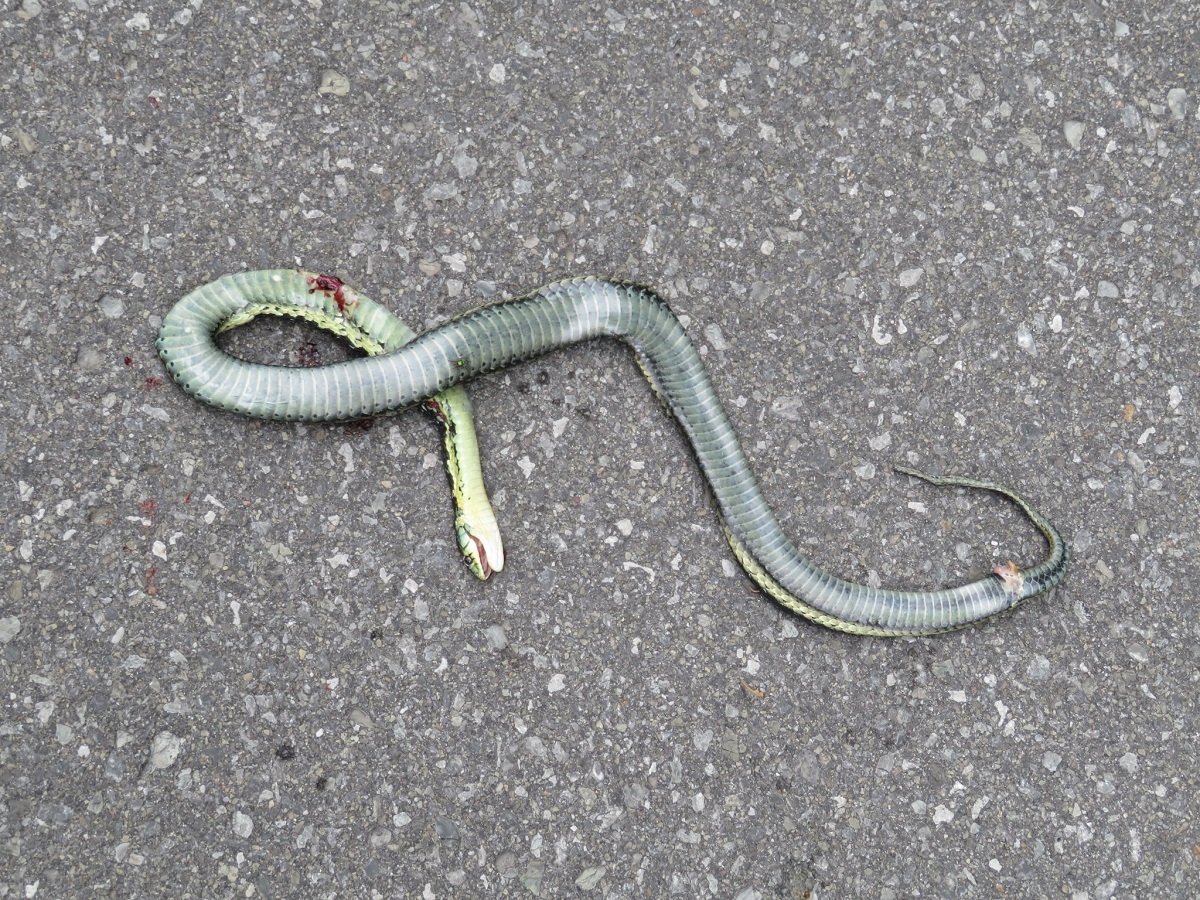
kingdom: Animalia
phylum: Chordata
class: Squamata
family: Colubridae
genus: Thamnophis
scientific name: Thamnophis sirtalis
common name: Common garter snake
